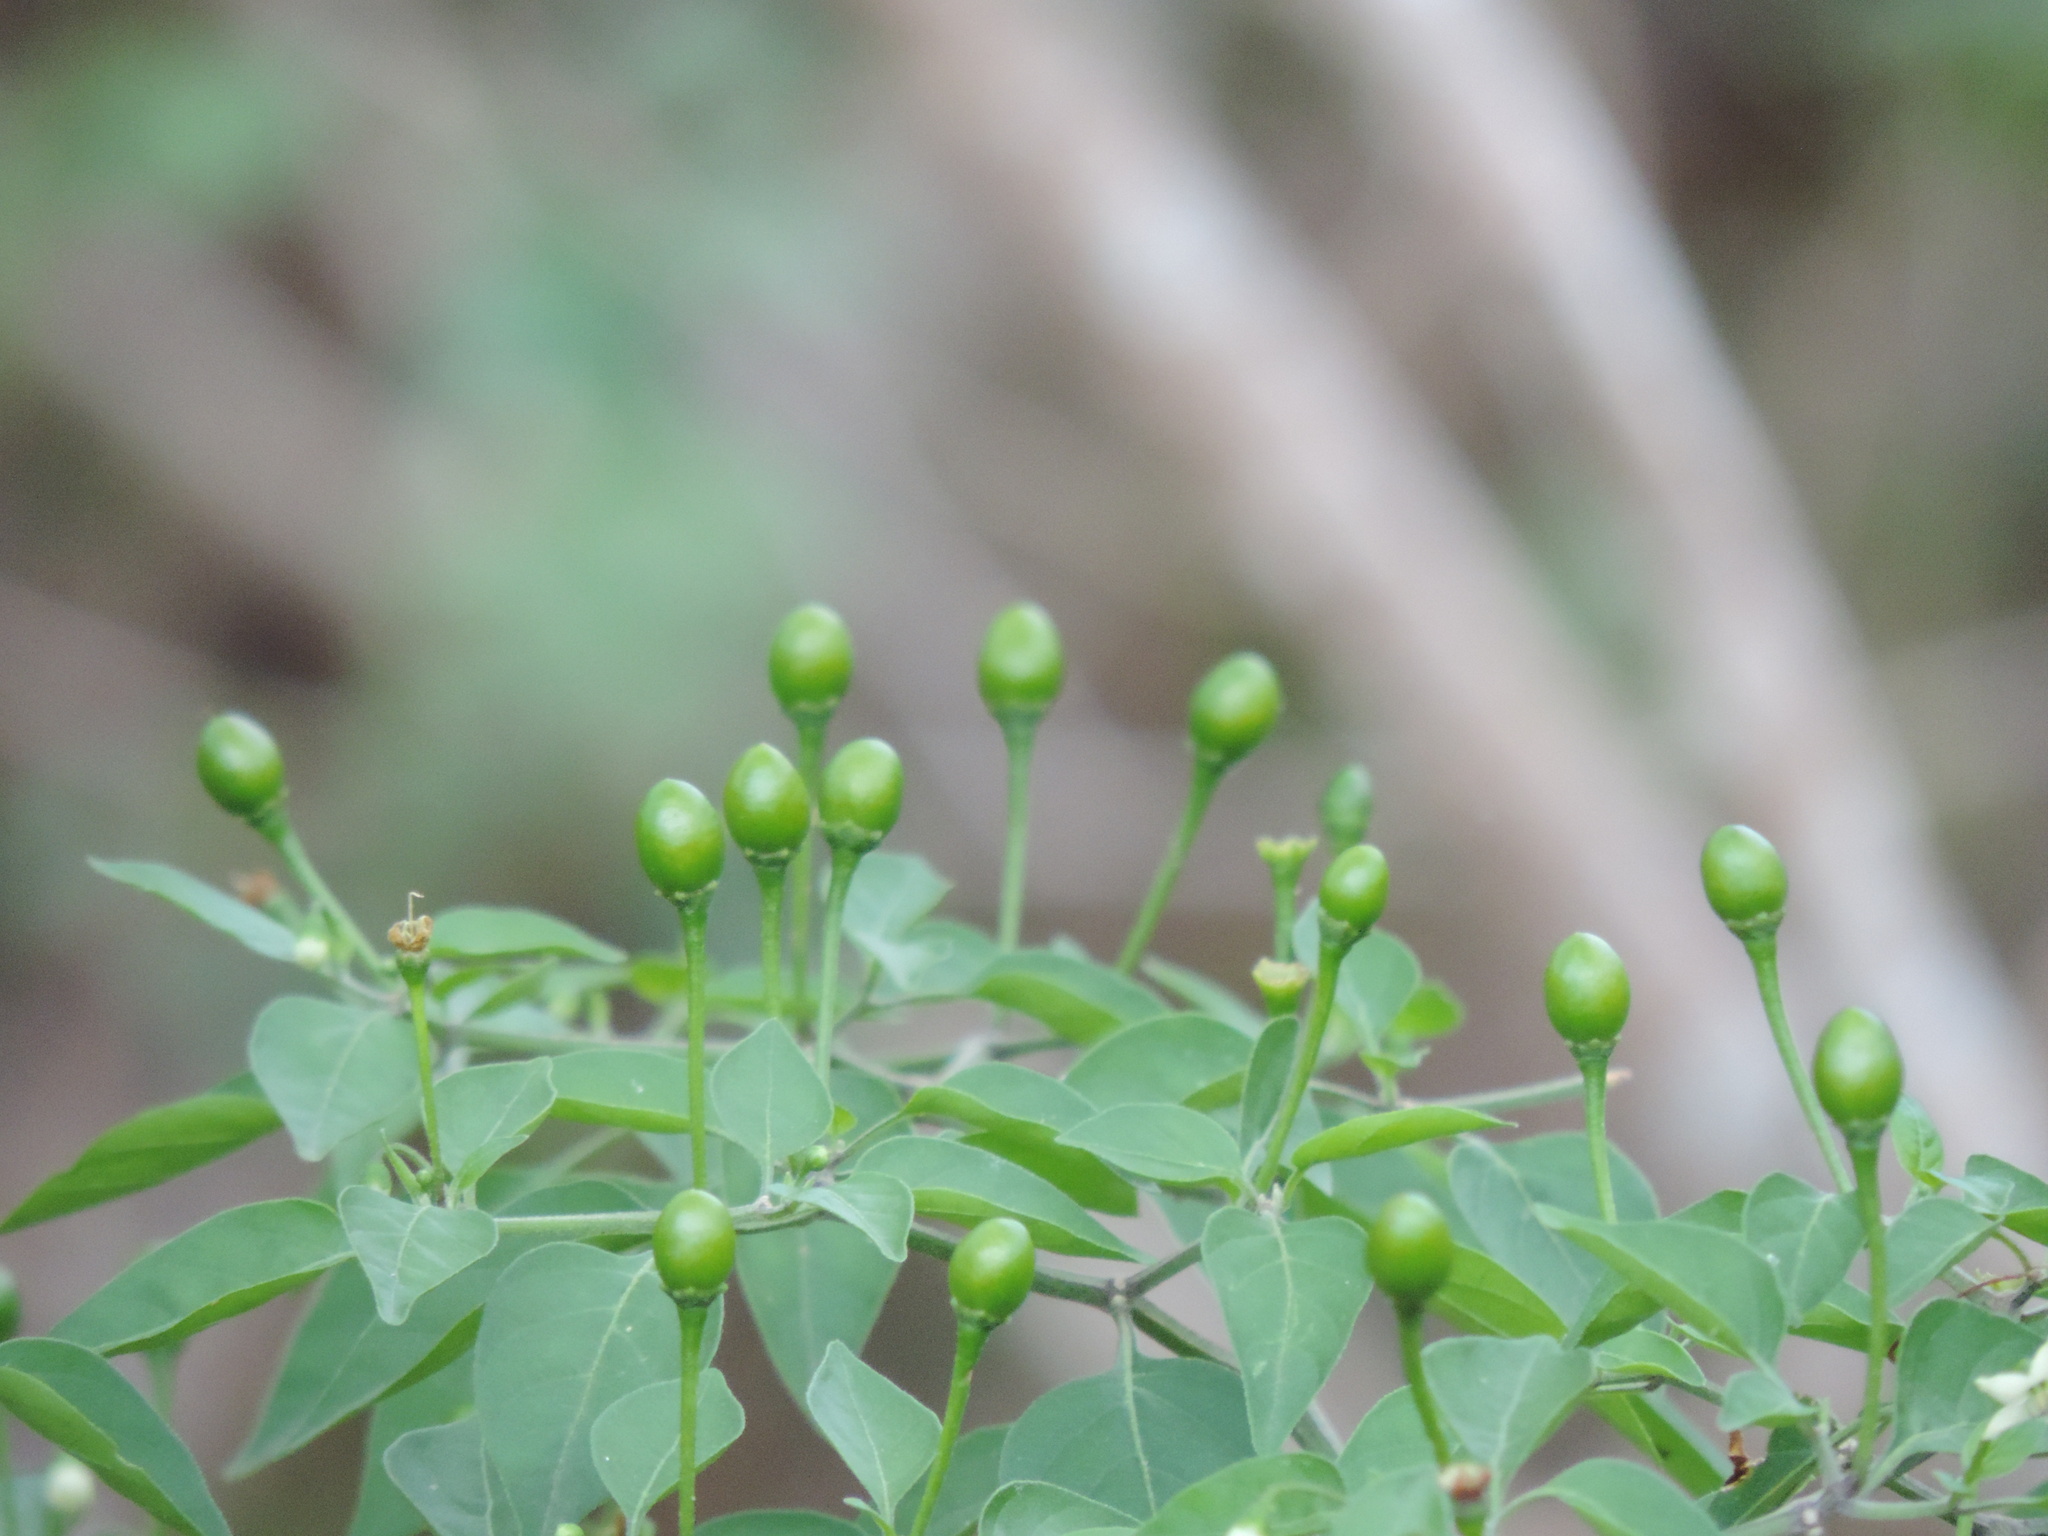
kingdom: Plantae
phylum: Tracheophyta
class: Magnoliopsida
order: Solanales
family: Solanaceae
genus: Capsicum
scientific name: Capsicum annuum
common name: Sweet pepper
